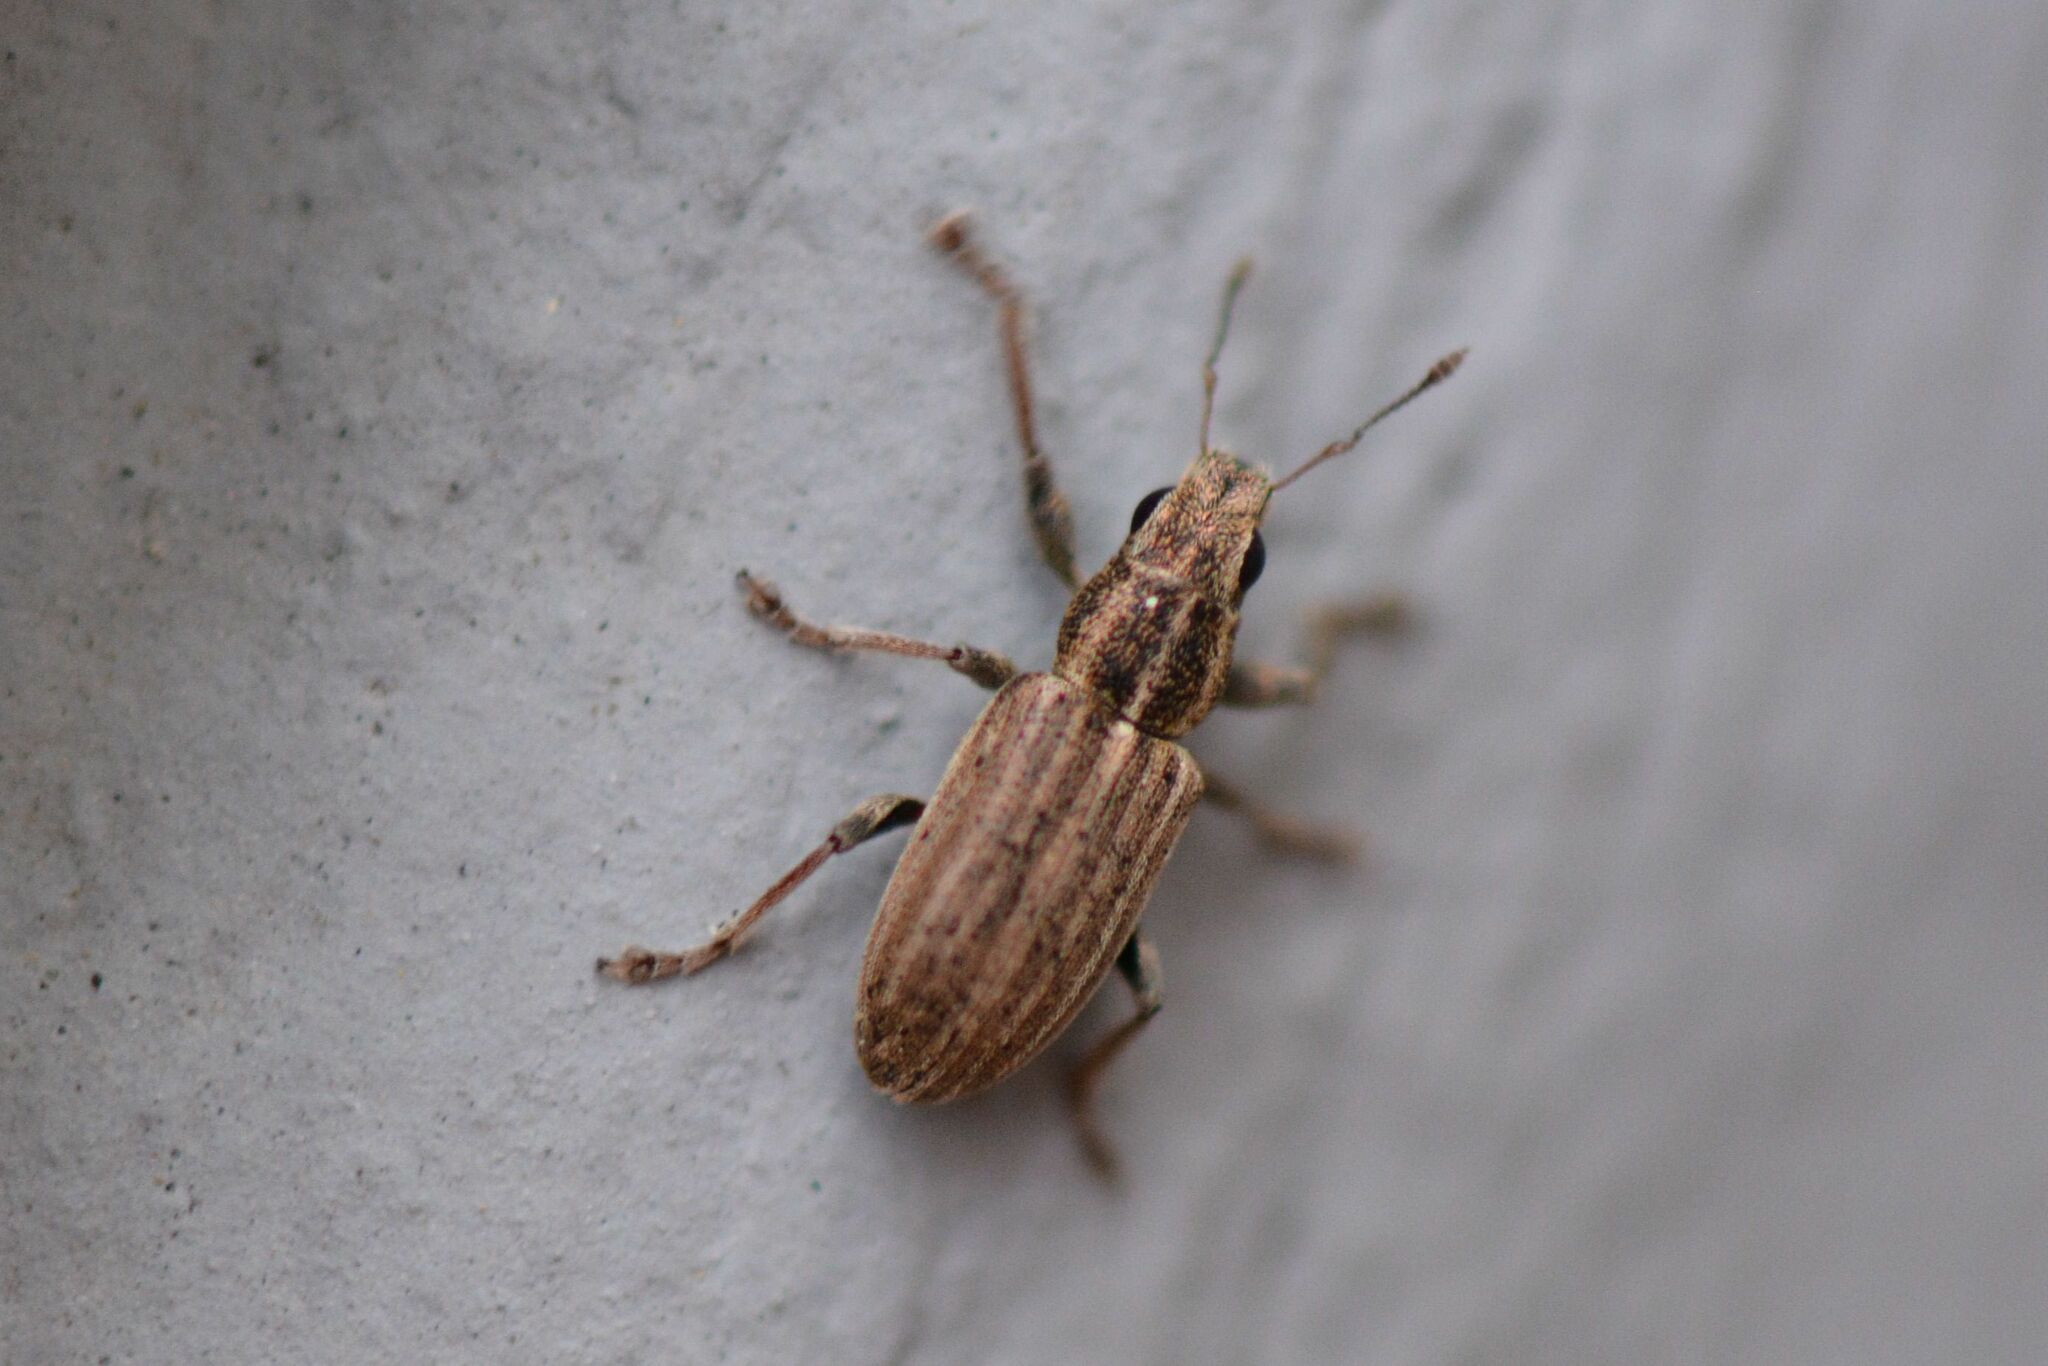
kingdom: Animalia
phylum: Arthropoda
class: Insecta
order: Coleoptera
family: Curculionidae
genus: Sitona
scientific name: Sitona lineatus
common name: Weevil
